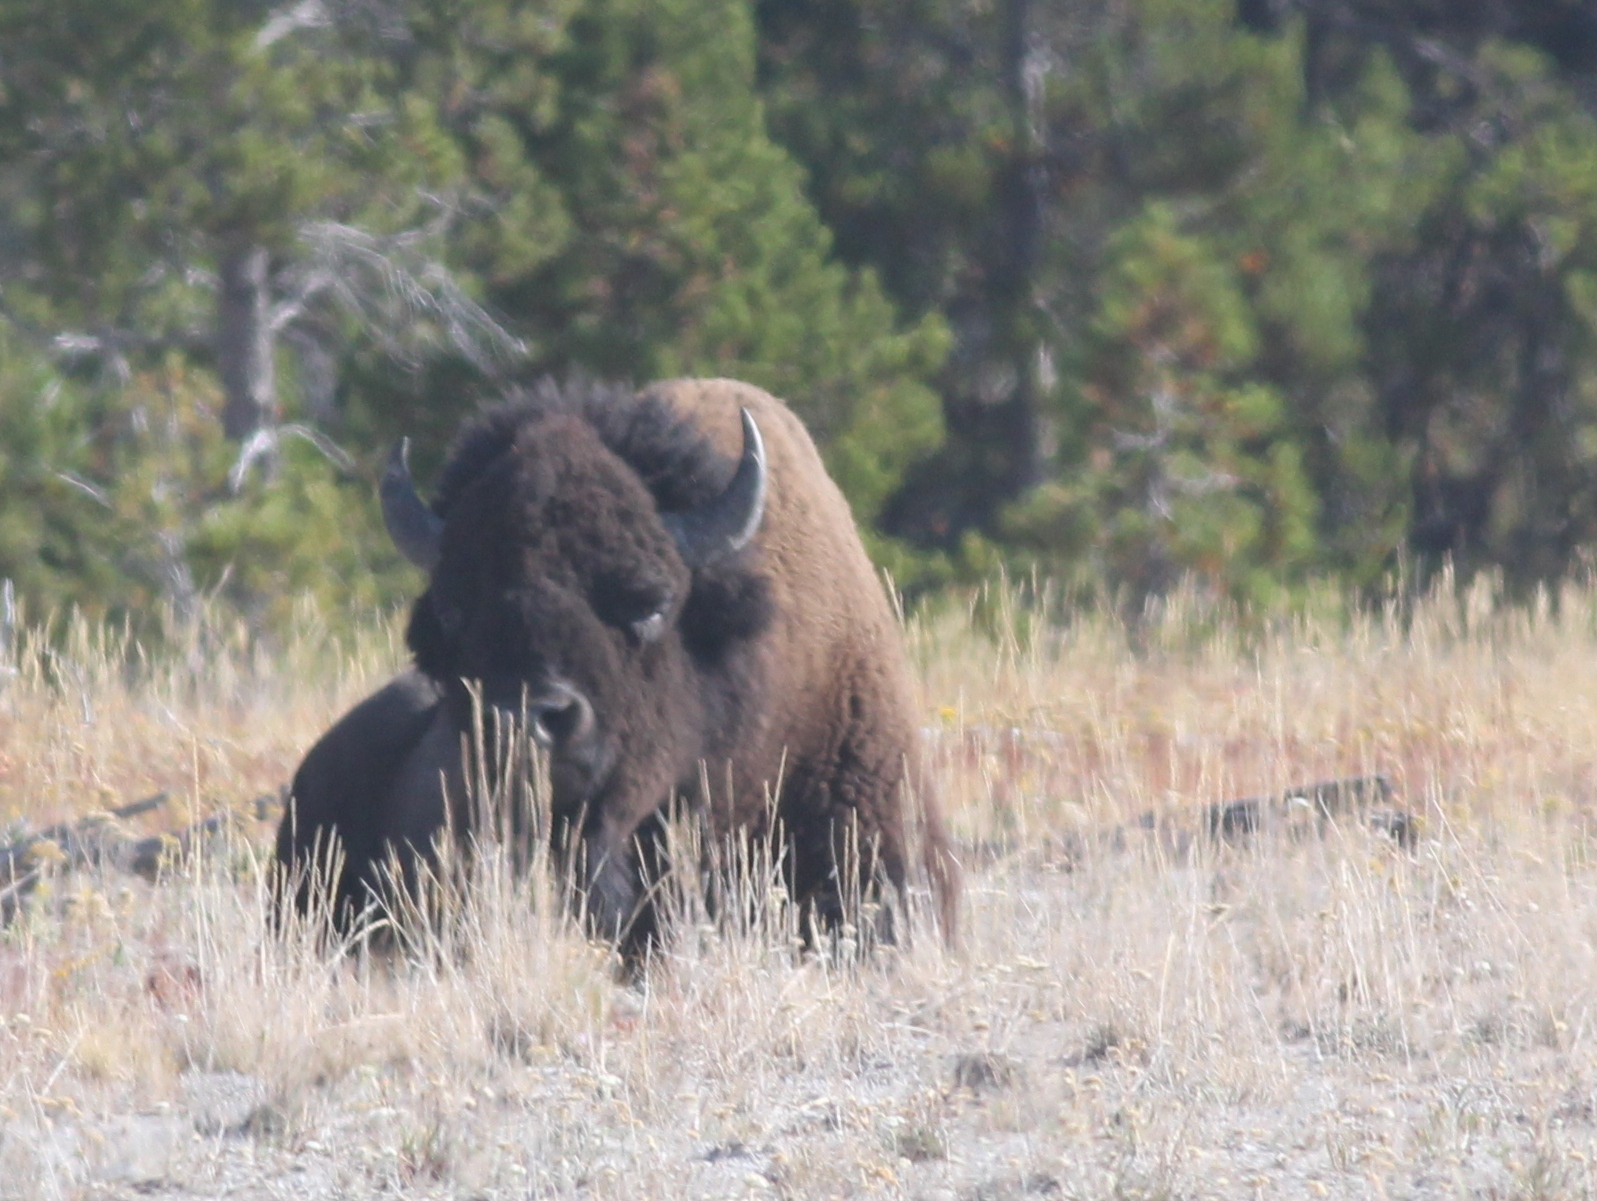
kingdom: Animalia
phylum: Chordata
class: Mammalia
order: Artiodactyla
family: Bovidae
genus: Bison
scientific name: Bison bison
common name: American bison
